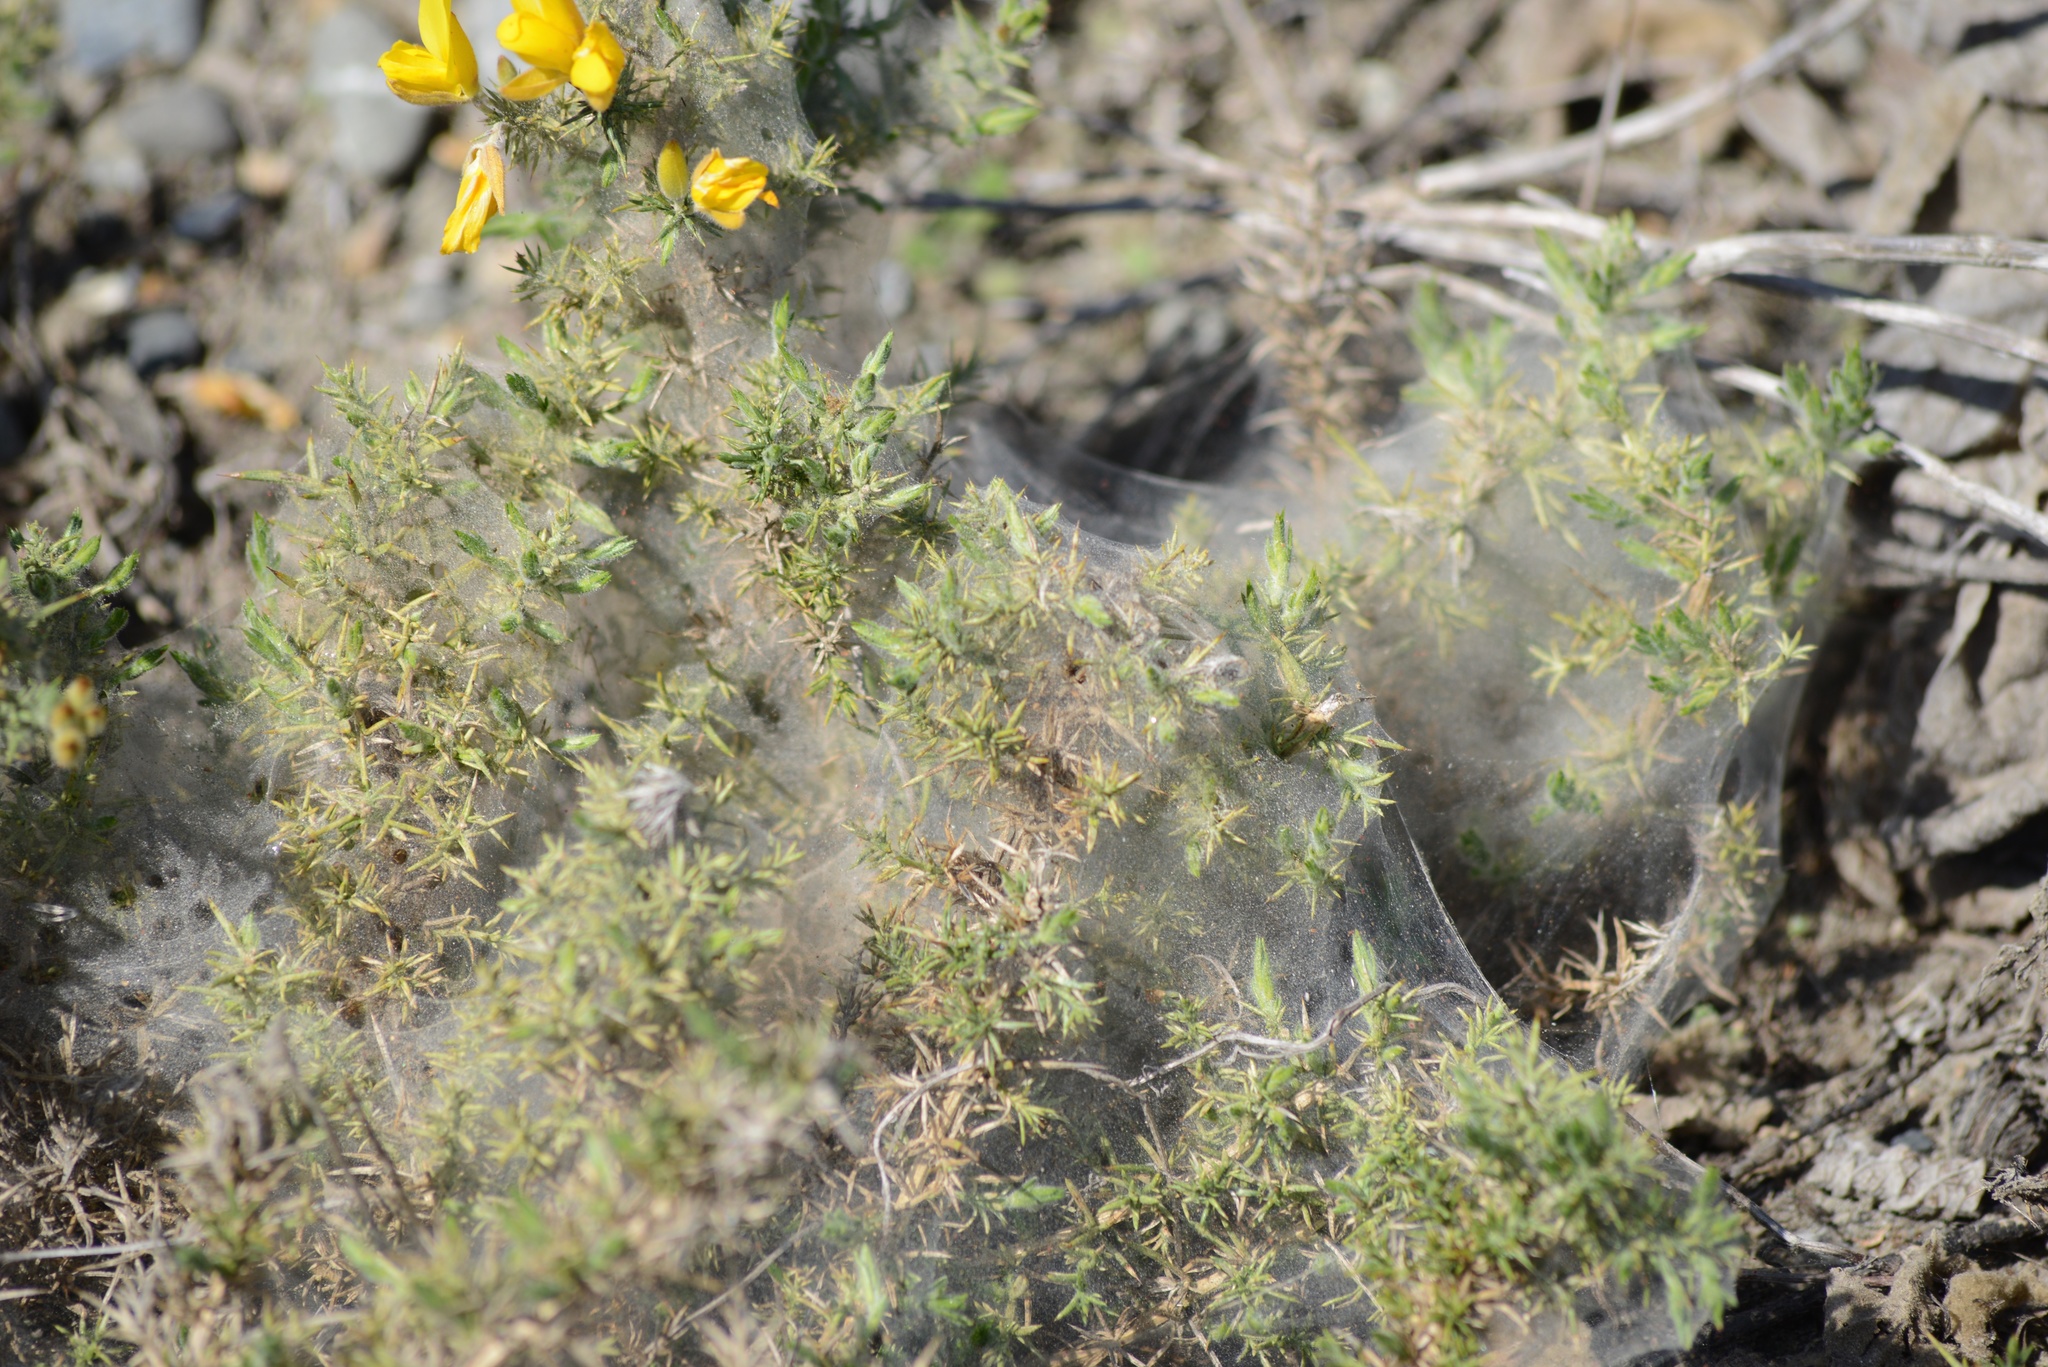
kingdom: Animalia
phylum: Arthropoda
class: Arachnida
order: Trombidiformes
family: Tetranychidae
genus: Tetranychus
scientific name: Tetranychus lintearius
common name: Gorse spider mite
